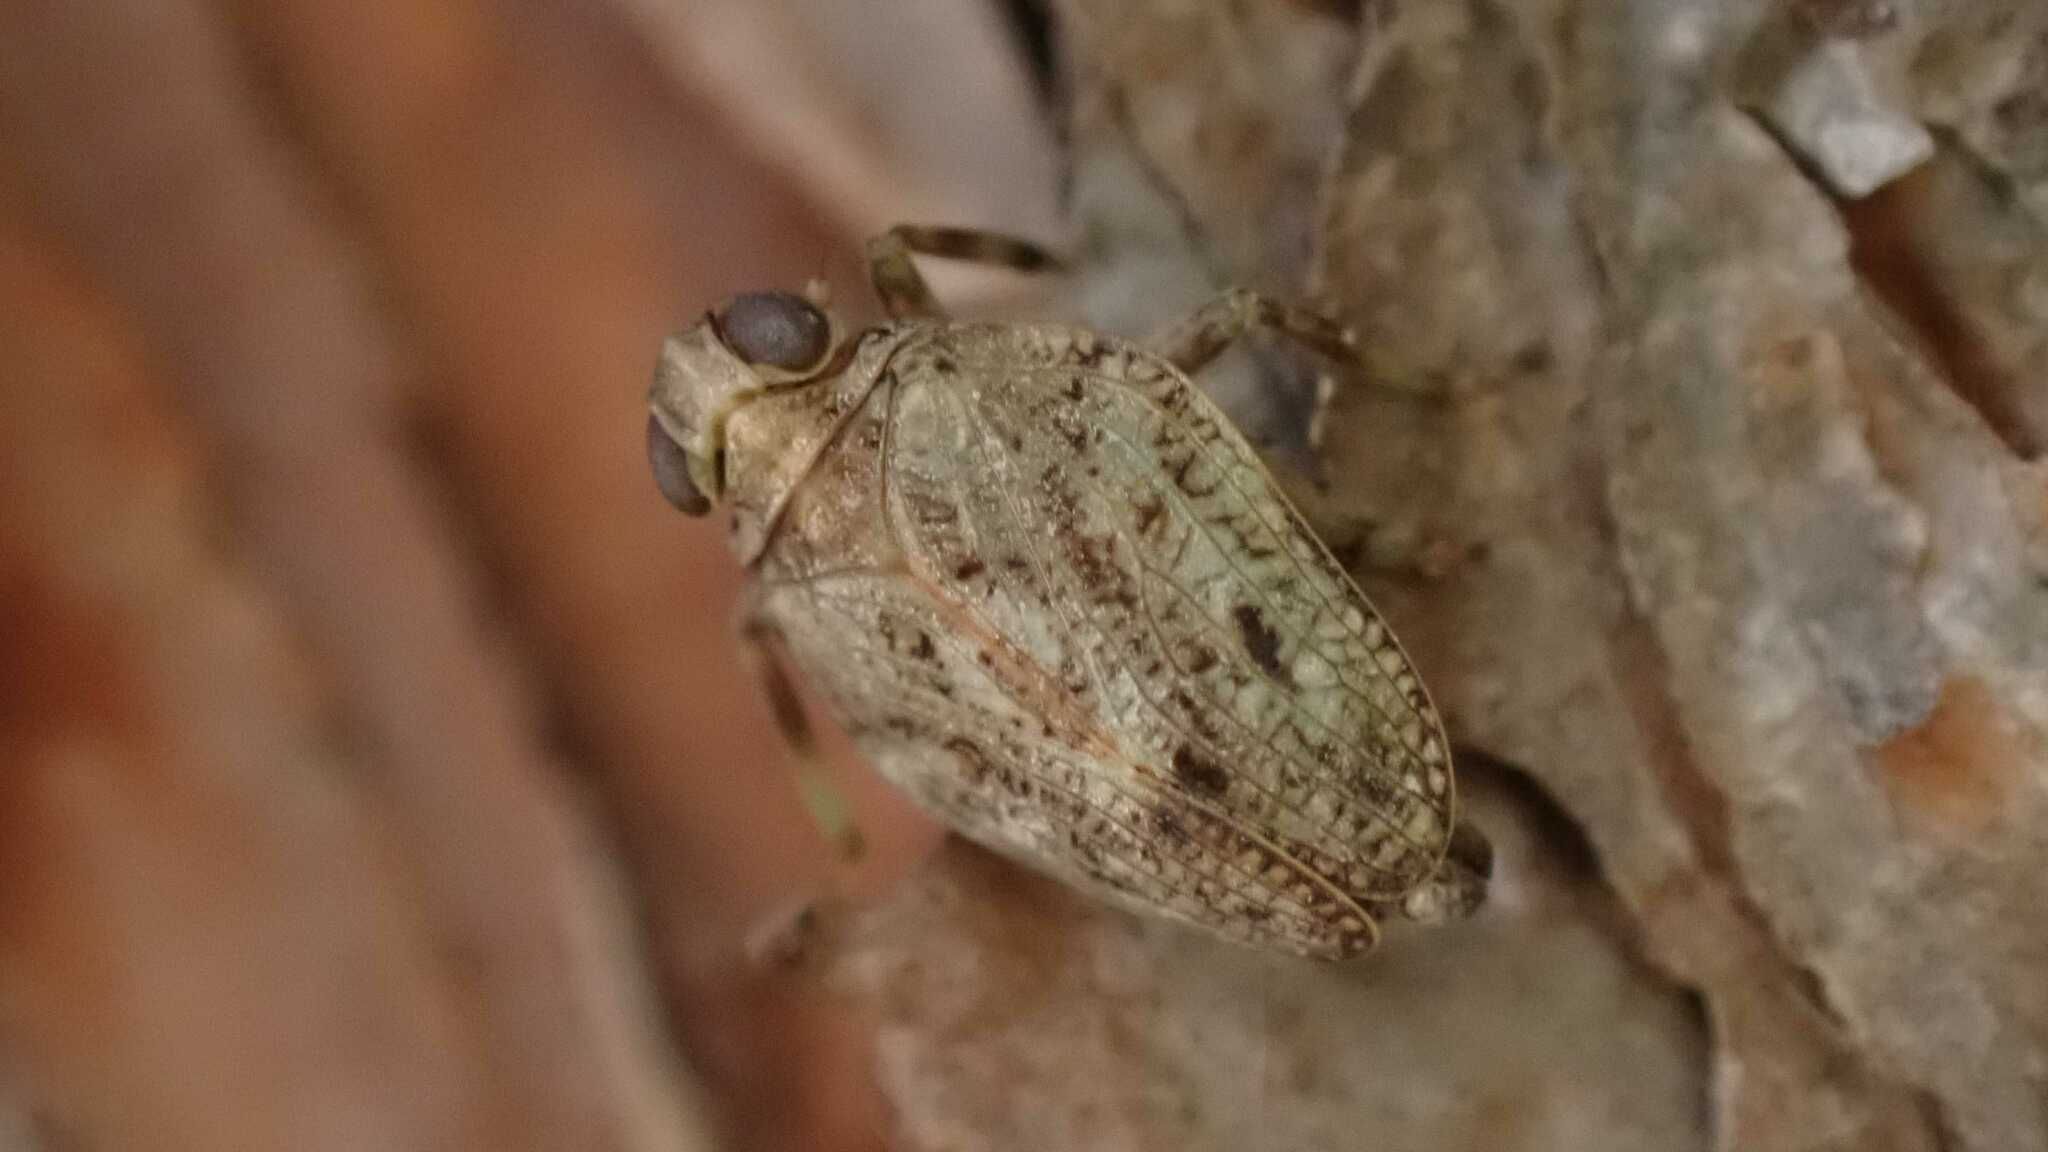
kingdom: Animalia
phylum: Arthropoda
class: Insecta
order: Hemiptera
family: Issidae
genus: Issus
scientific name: Issus coleoptratus
